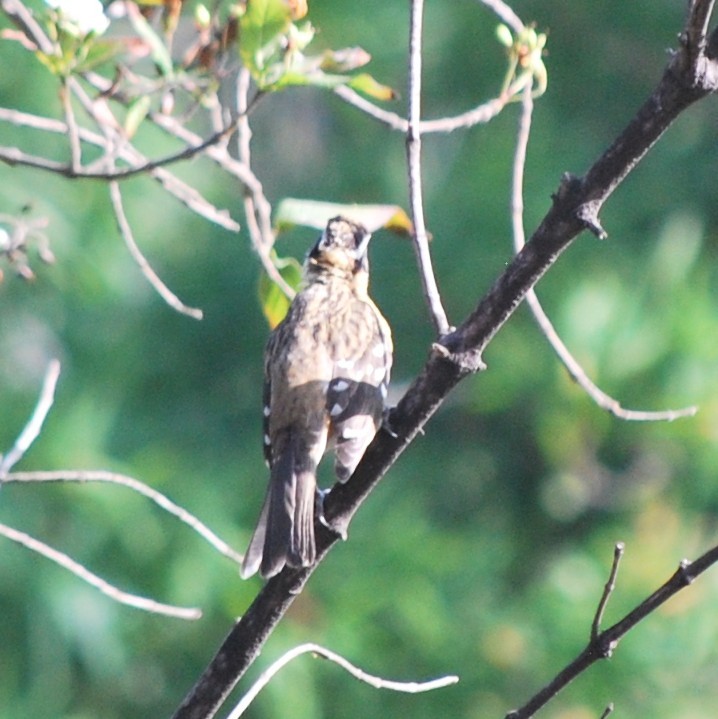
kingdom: Animalia
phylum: Chordata
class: Aves
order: Passeriformes
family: Cardinalidae
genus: Pheucticus
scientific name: Pheucticus melanocephalus
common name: Black-headed grosbeak
